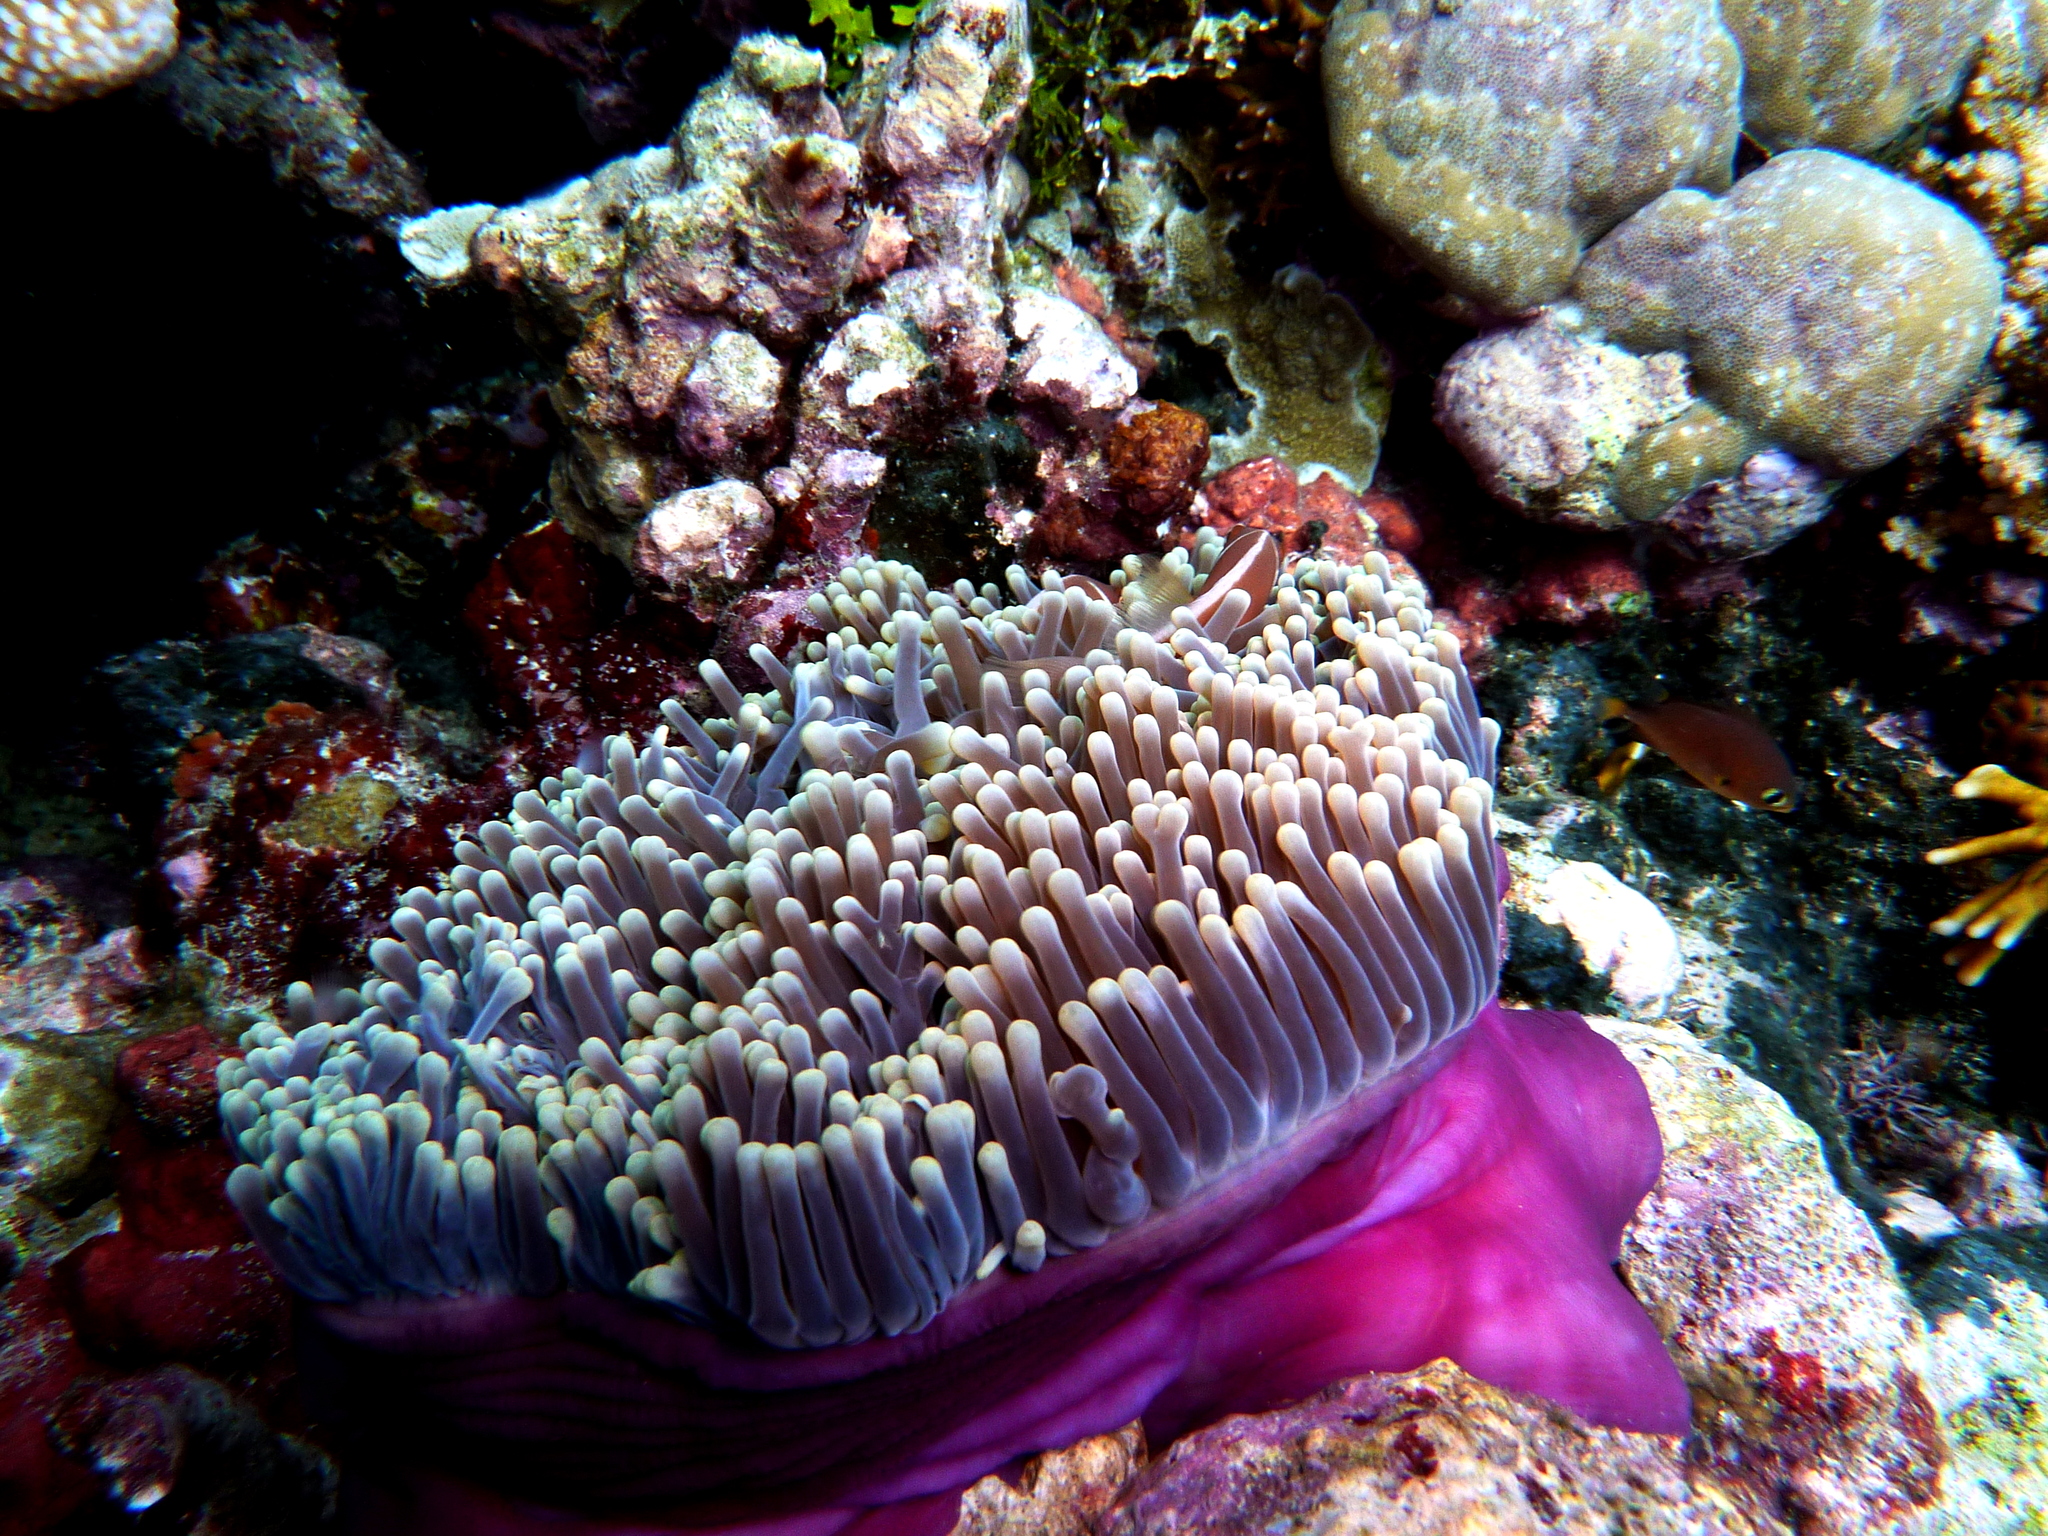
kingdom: Animalia
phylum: Cnidaria
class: Anthozoa
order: Actiniaria
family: Stichodactylidae
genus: Radianthus
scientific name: Radianthus magnifica
